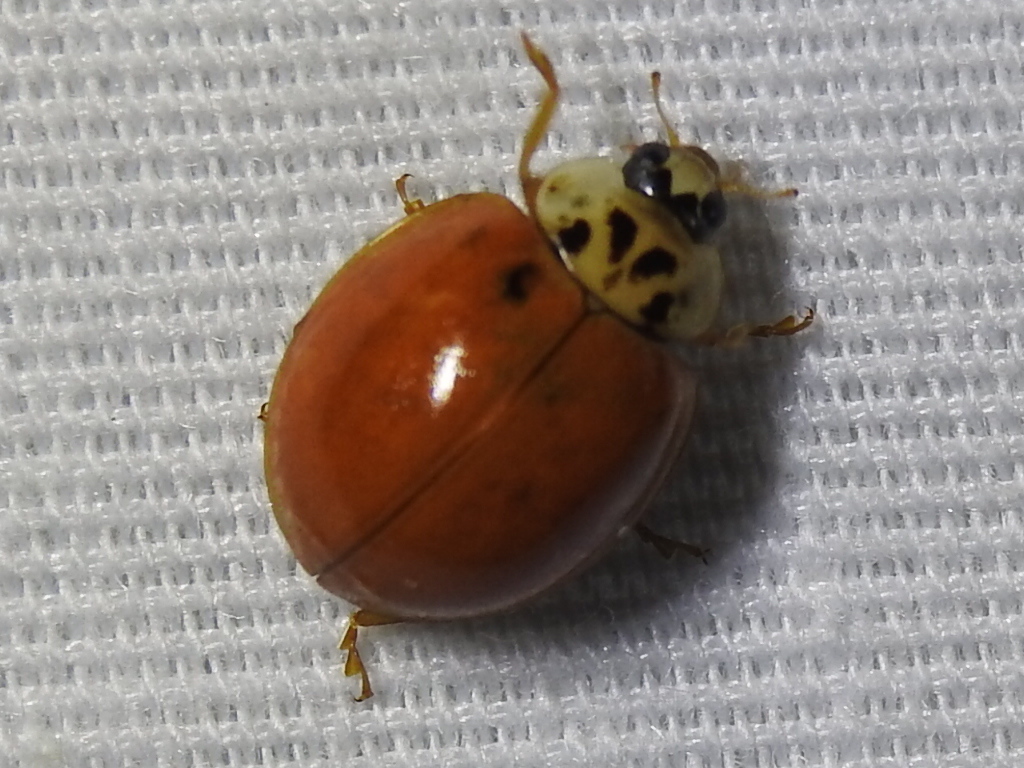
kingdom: Animalia
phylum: Arthropoda
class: Insecta
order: Coleoptera
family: Coccinellidae
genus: Harmonia
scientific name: Harmonia axyridis
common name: Harlequin ladybird
